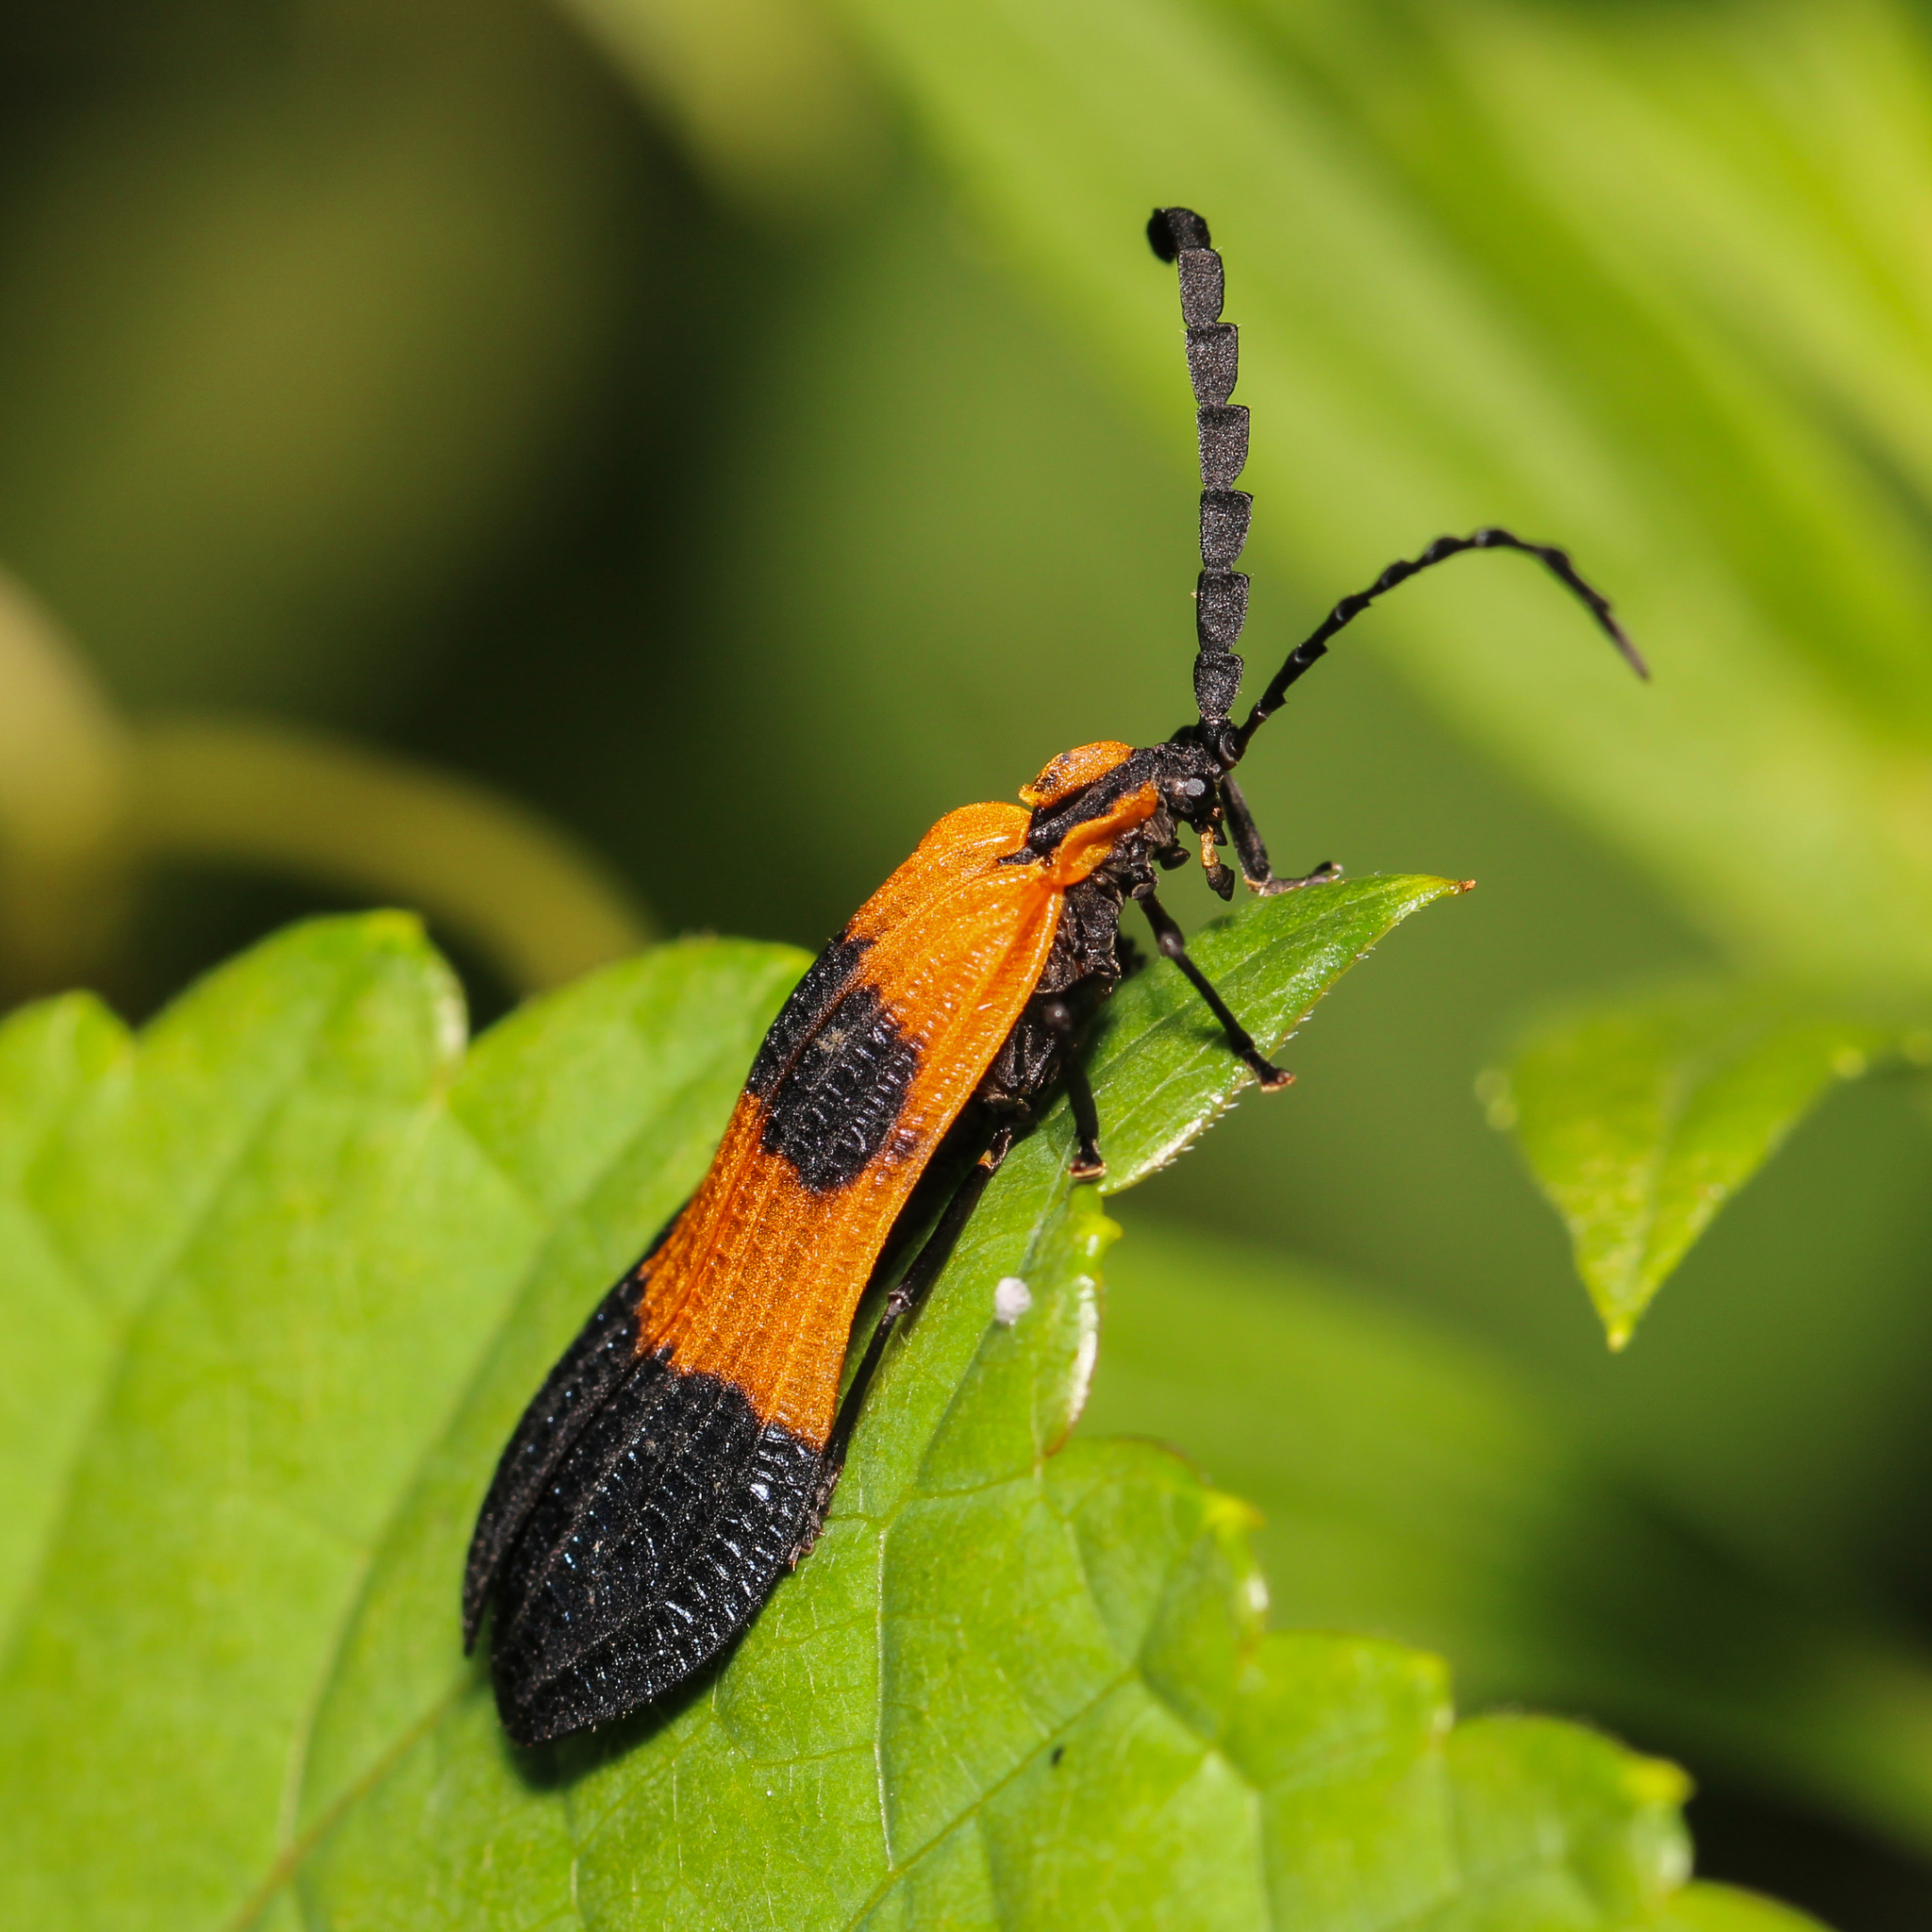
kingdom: Animalia
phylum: Arthropoda
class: Insecta
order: Coleoptera
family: Lycidae
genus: Calopteron
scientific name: Calopteron terminale
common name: End band net-winged beetle
